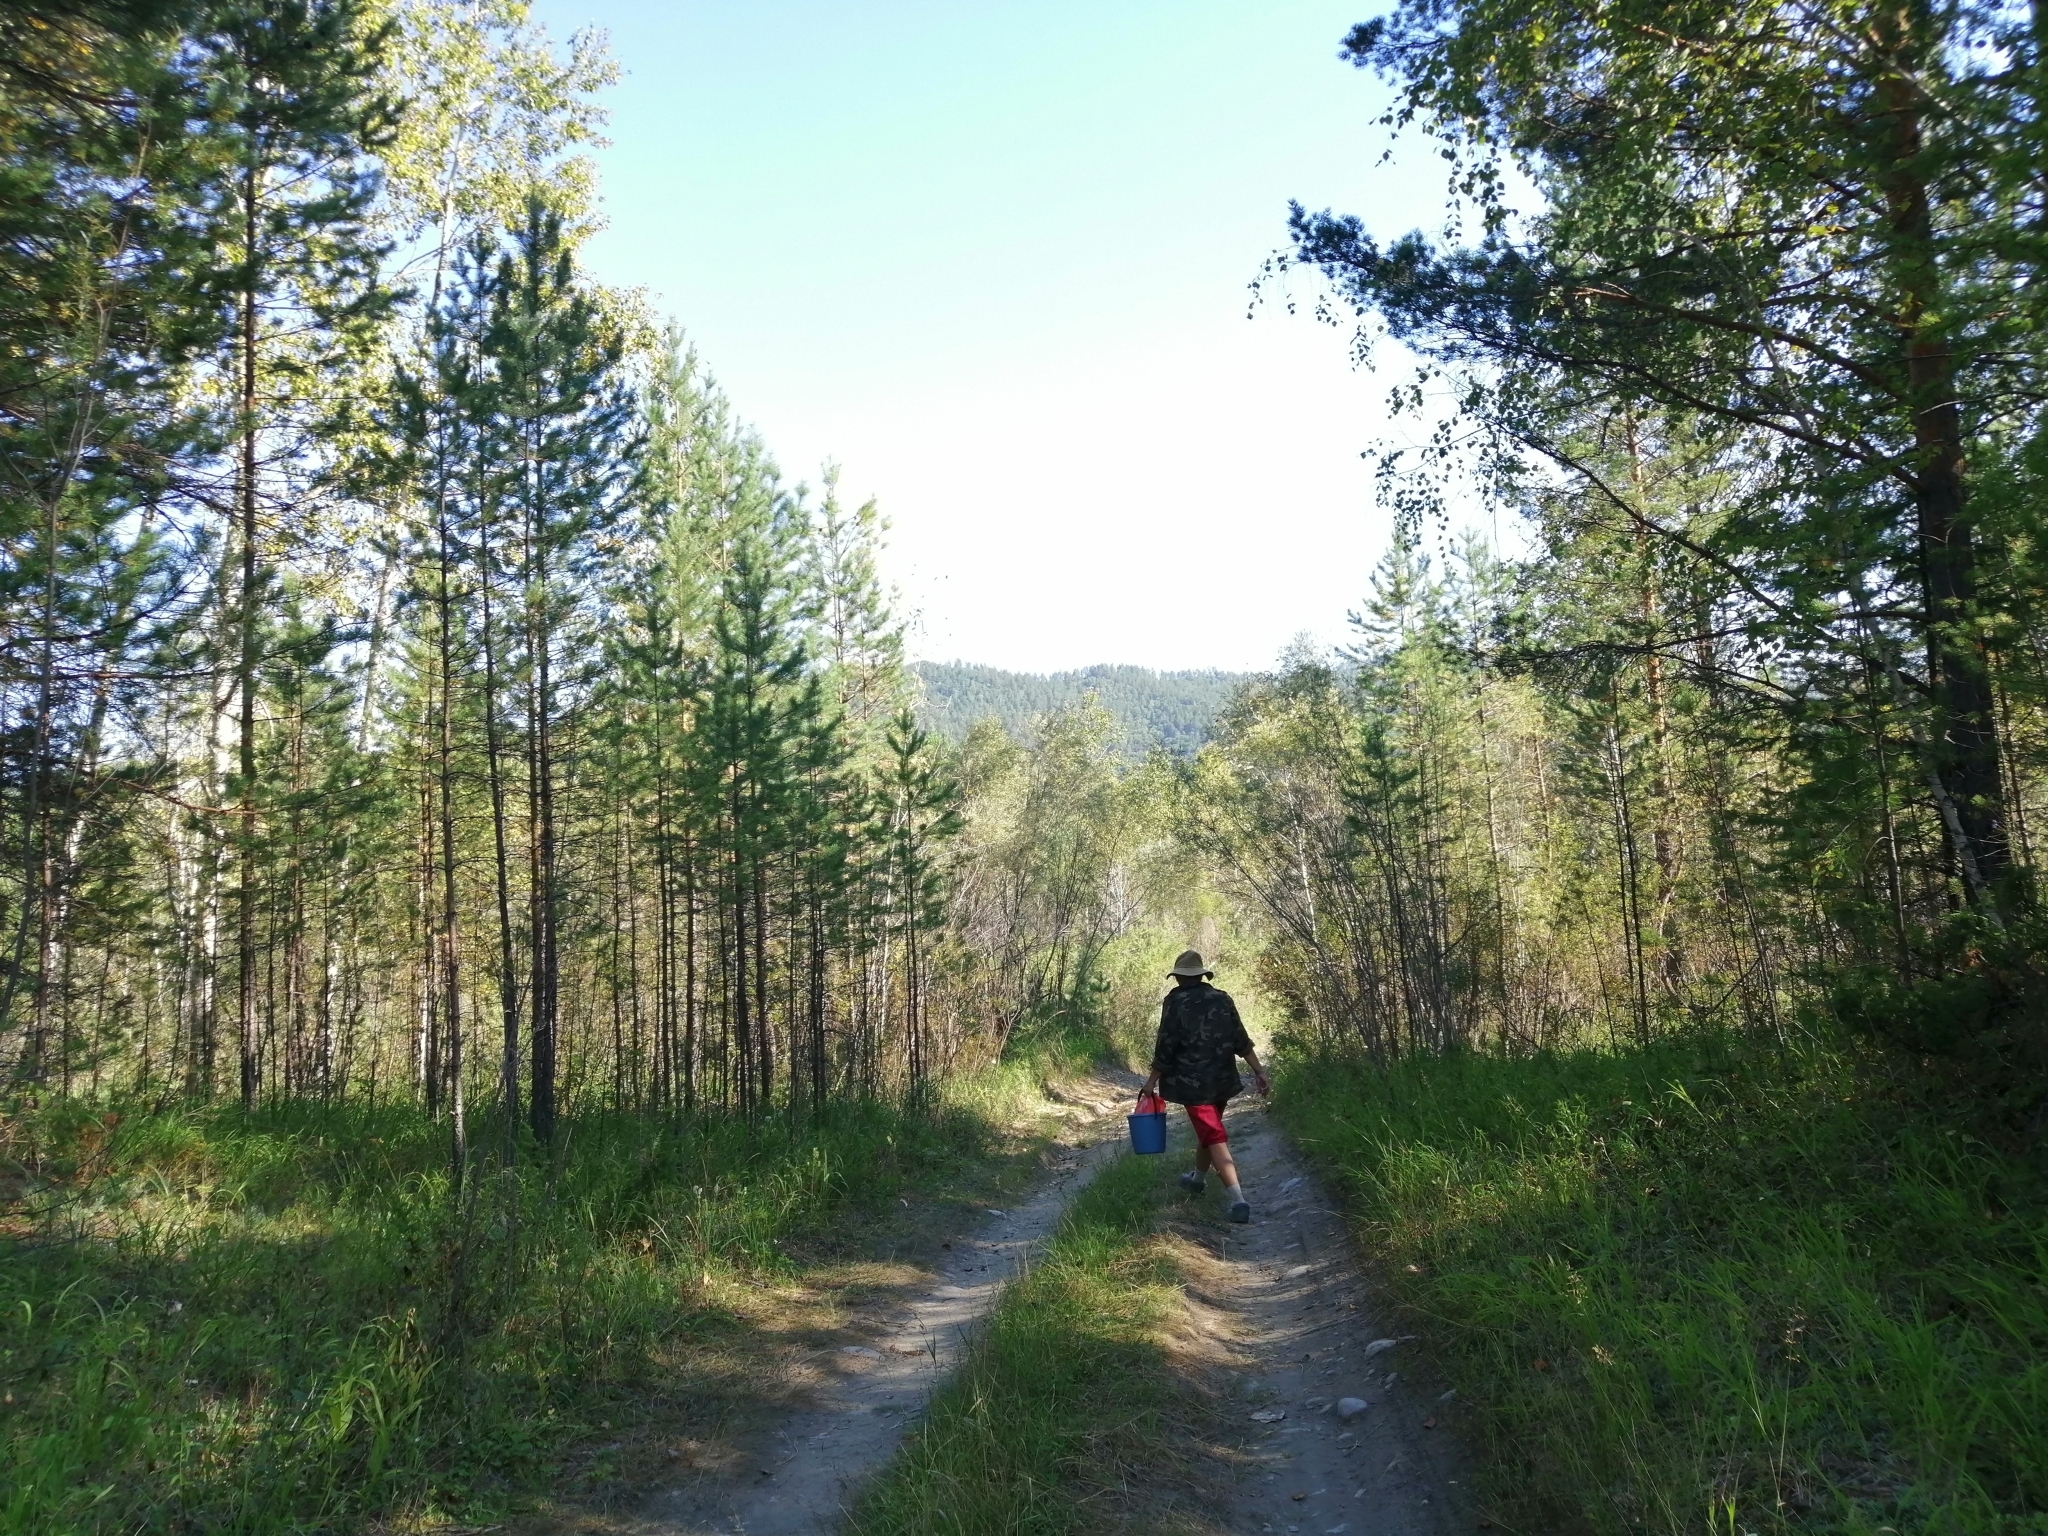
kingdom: Plantae
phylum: Tracheophyta
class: Pinopsida
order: Pinales
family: Pinaceae
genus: Pinus
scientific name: Pinus sylvestris
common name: Scots pine
